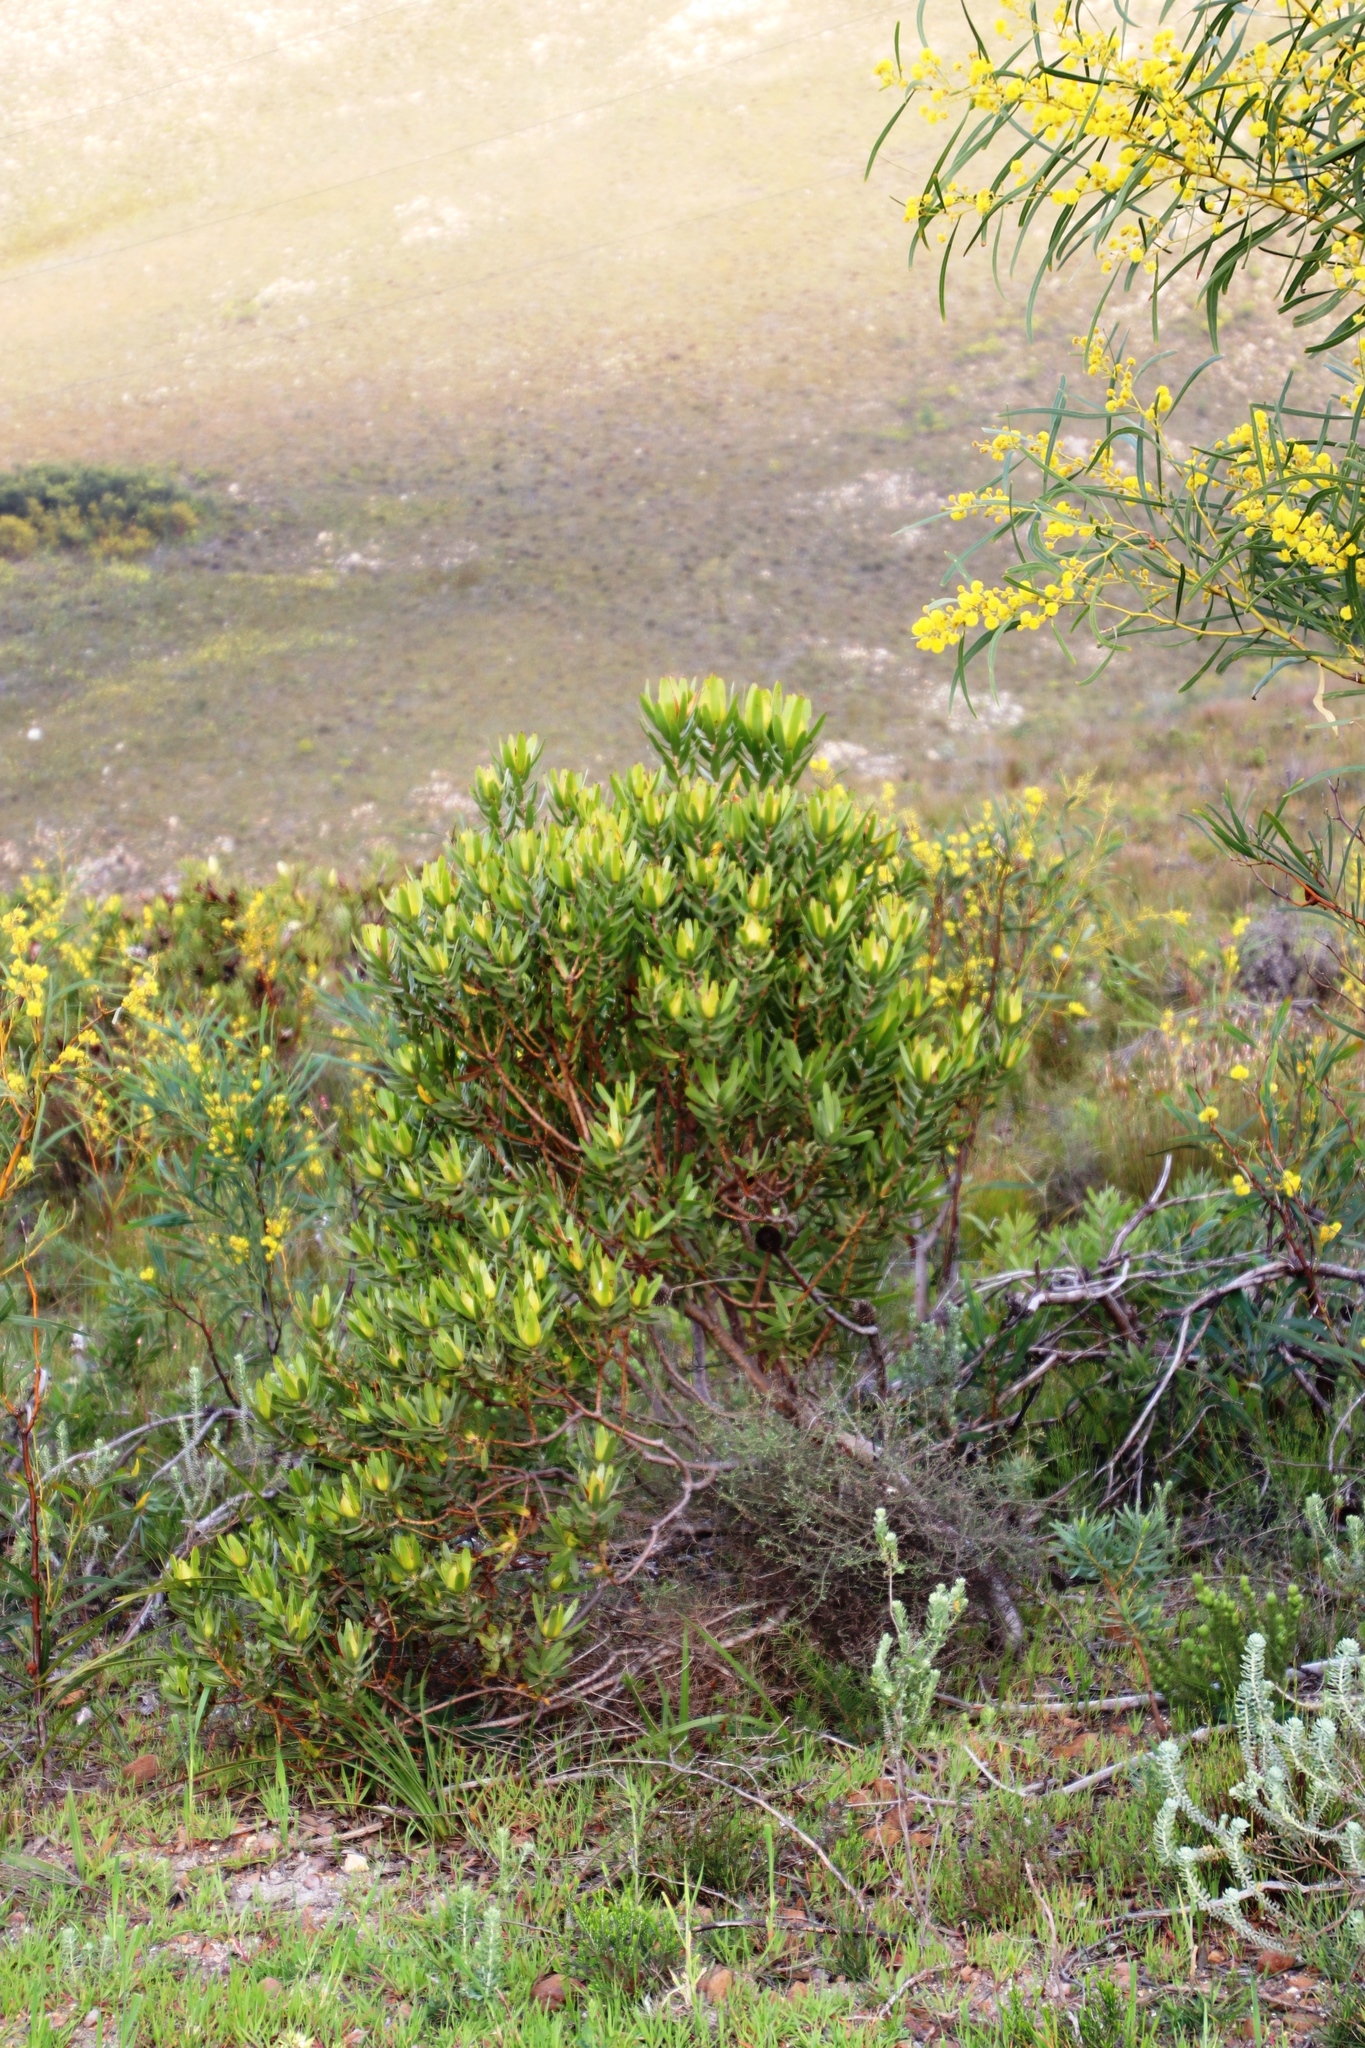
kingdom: Plantae
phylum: Tracheophyta
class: Magnoliopsida
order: Proteales
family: Proteaceae
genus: Leucadendron
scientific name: Leucadendron laureolum
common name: Golden sunshinebush
